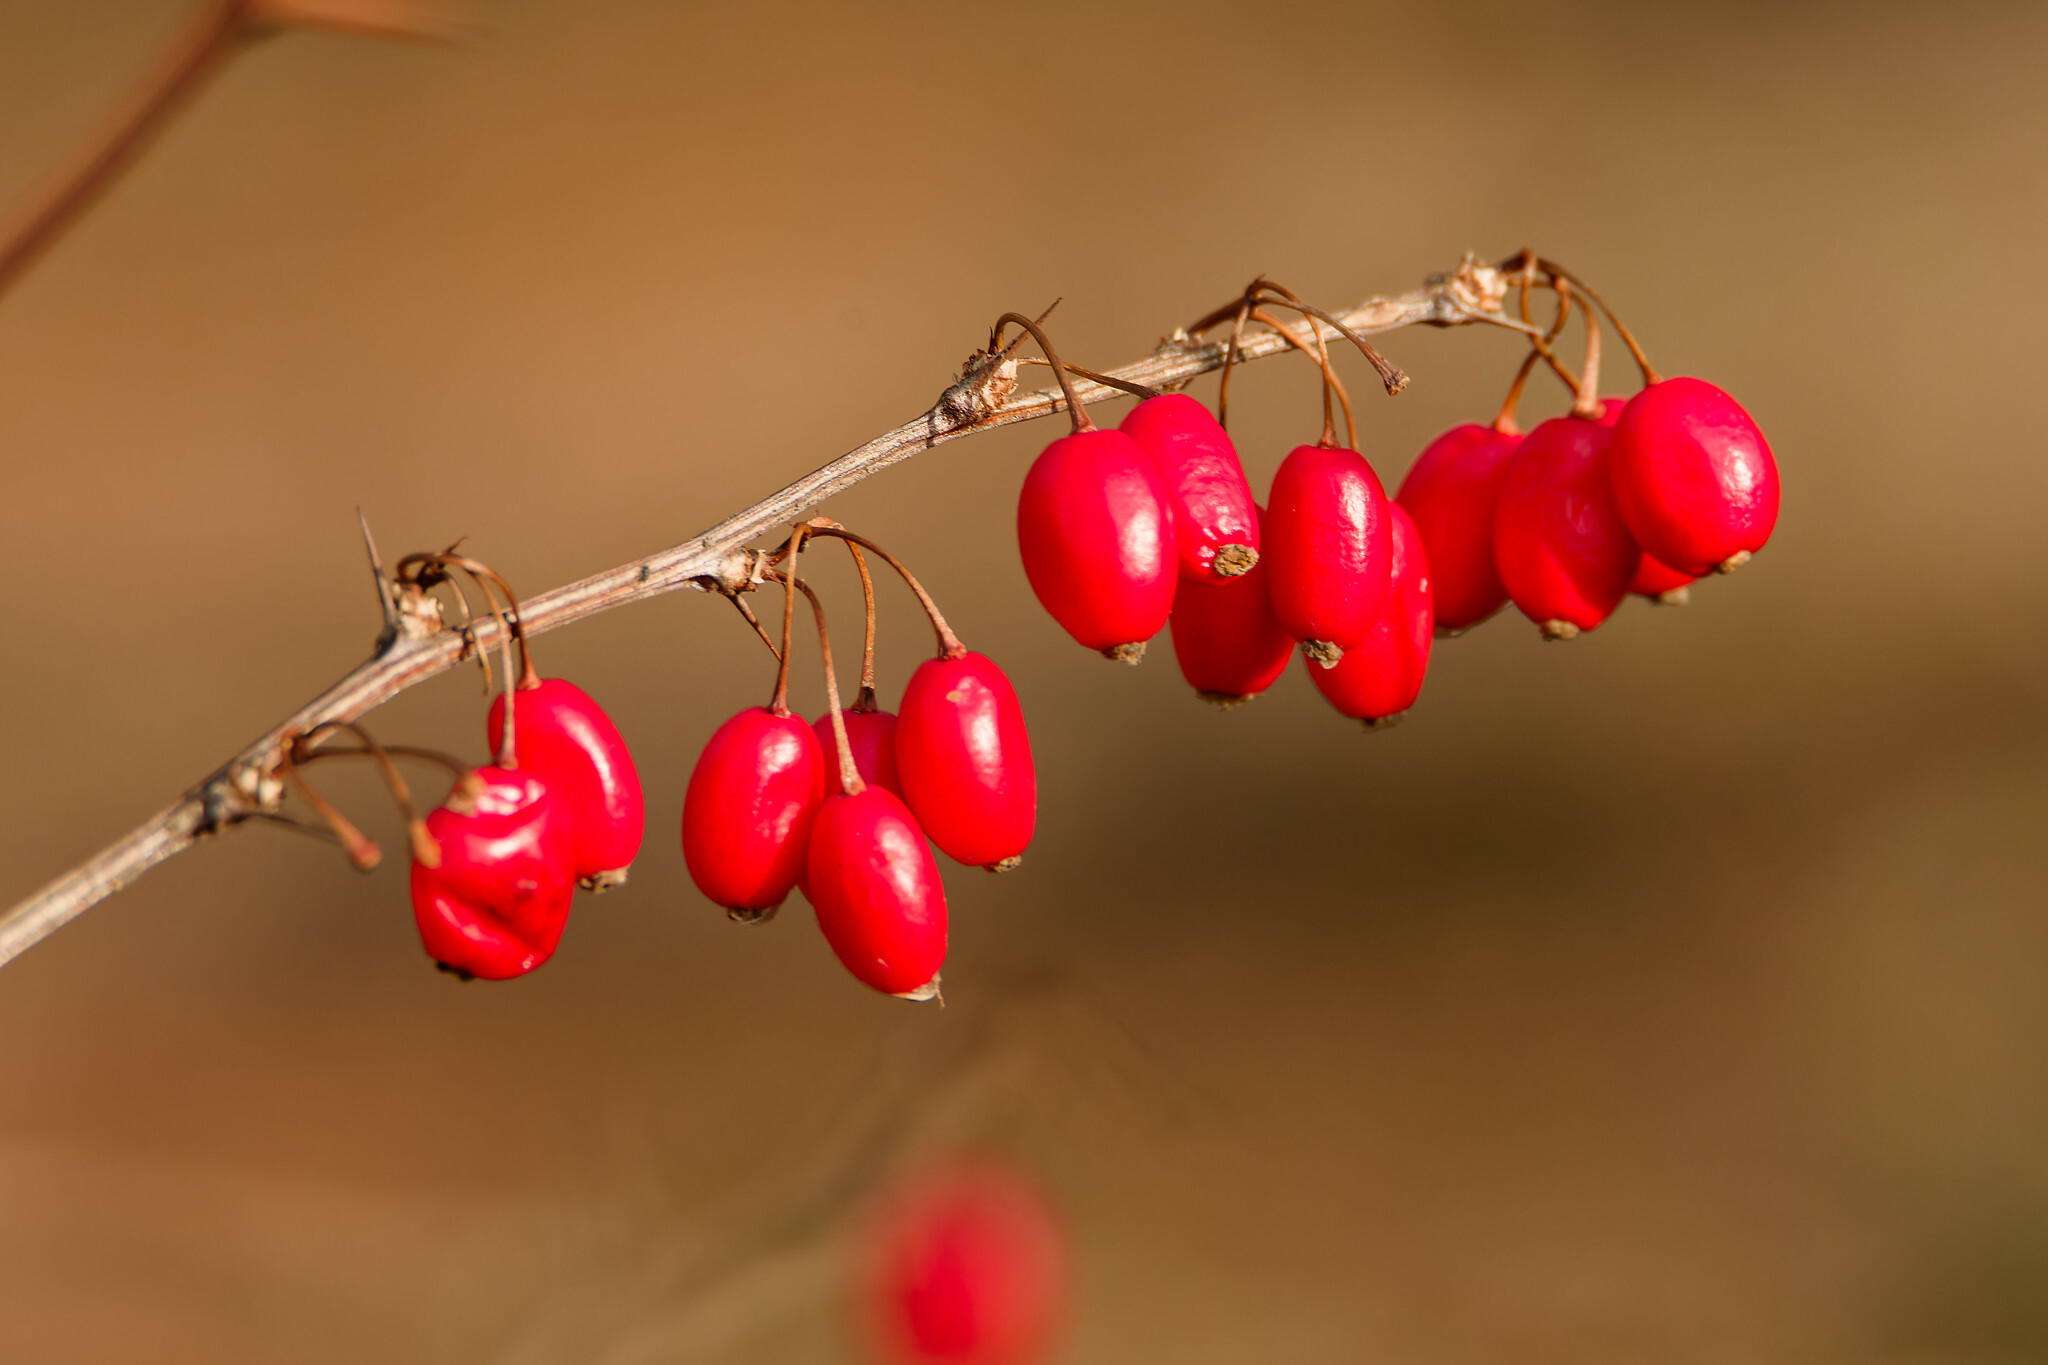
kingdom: Plantae
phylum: Tracheophyta
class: Magnoliopsida
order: Ranunculales
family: Berberidaceae
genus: Berberis
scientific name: Berberis thunbergii
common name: Japanese barberry
